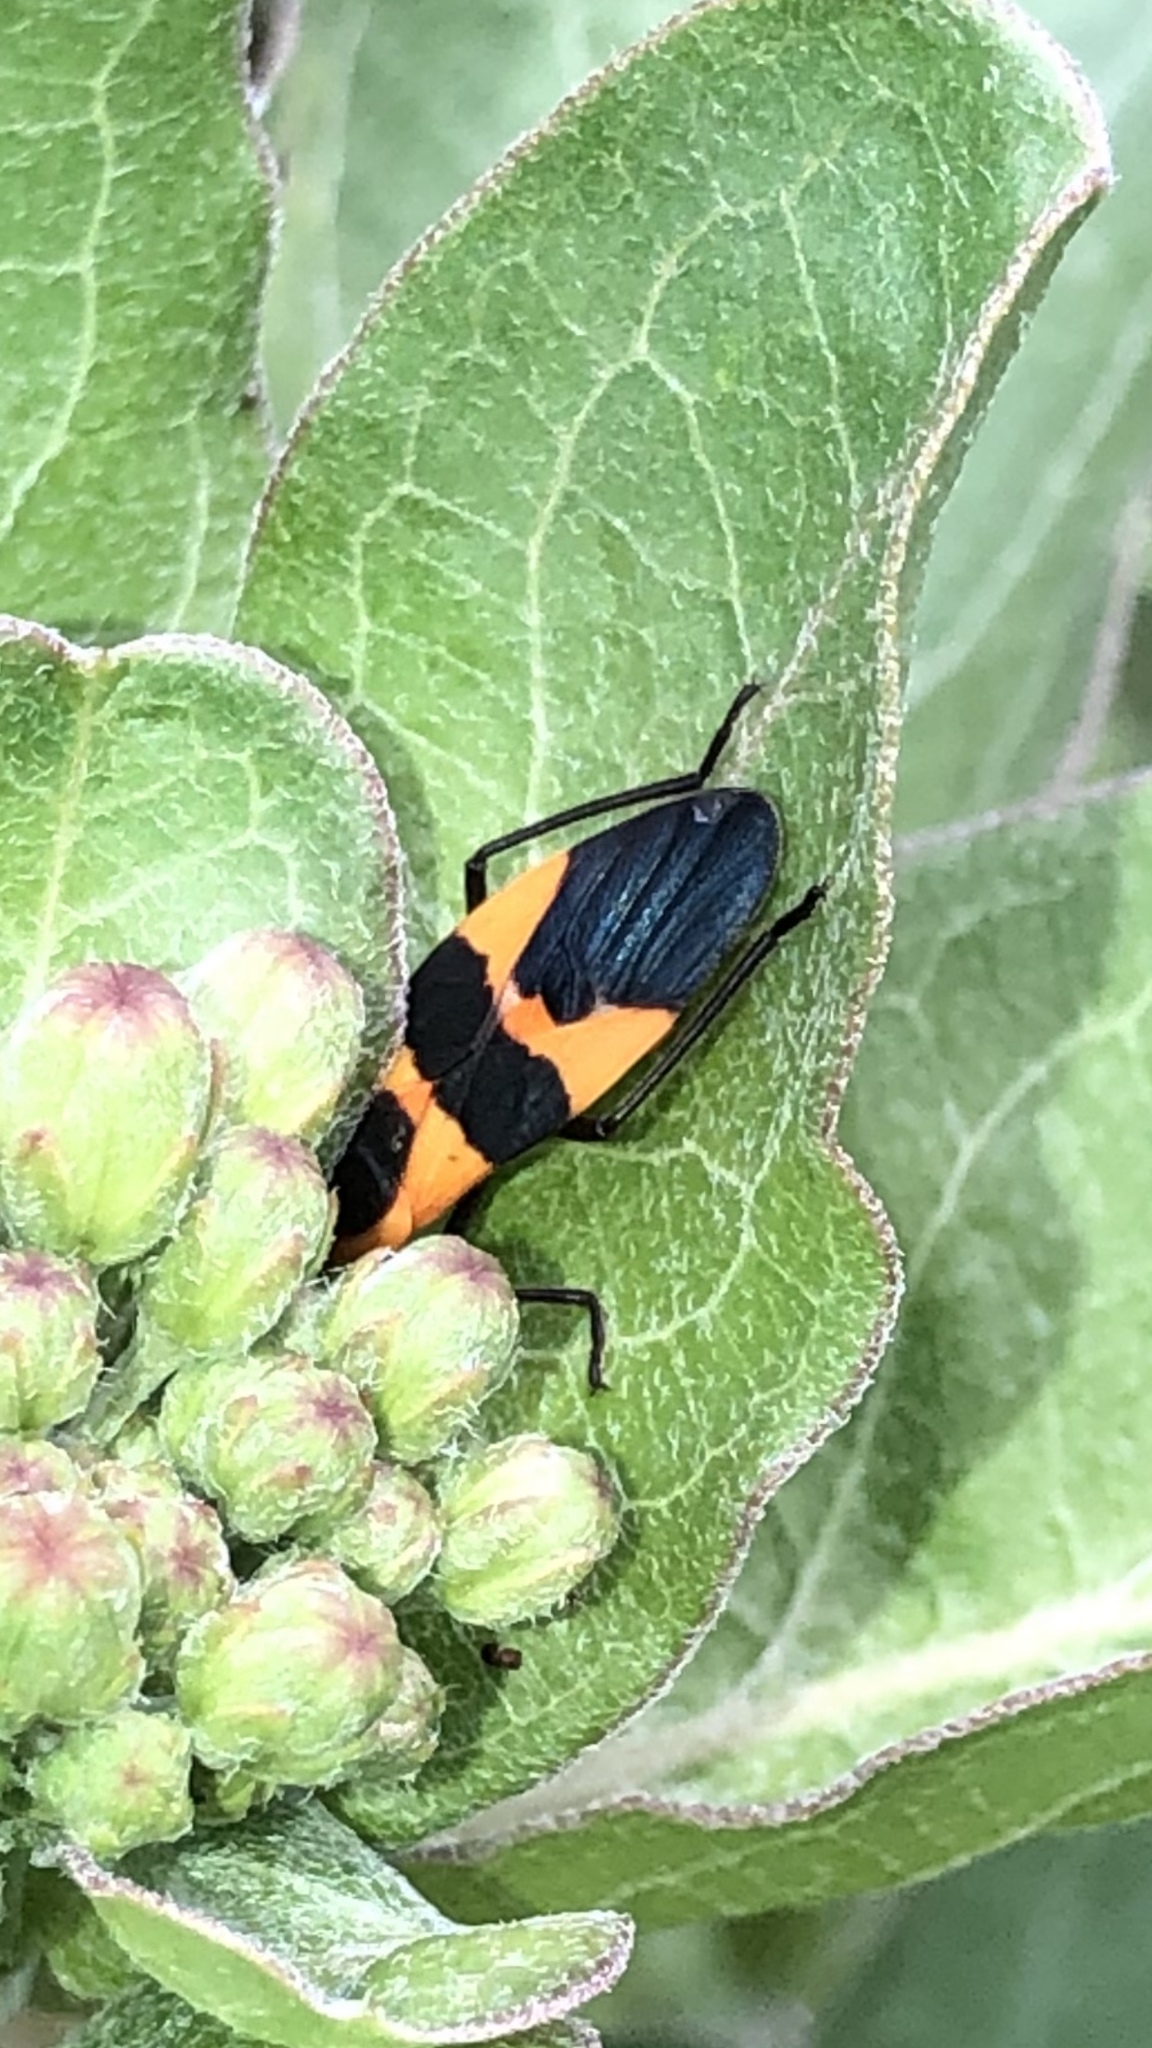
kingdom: Animalia
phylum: Arthropoda
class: Insecta
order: Hemiptera
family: Lygaeidae
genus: Oncopeltus
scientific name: Oncopeltus fasciatus
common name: Large milkweed bug
